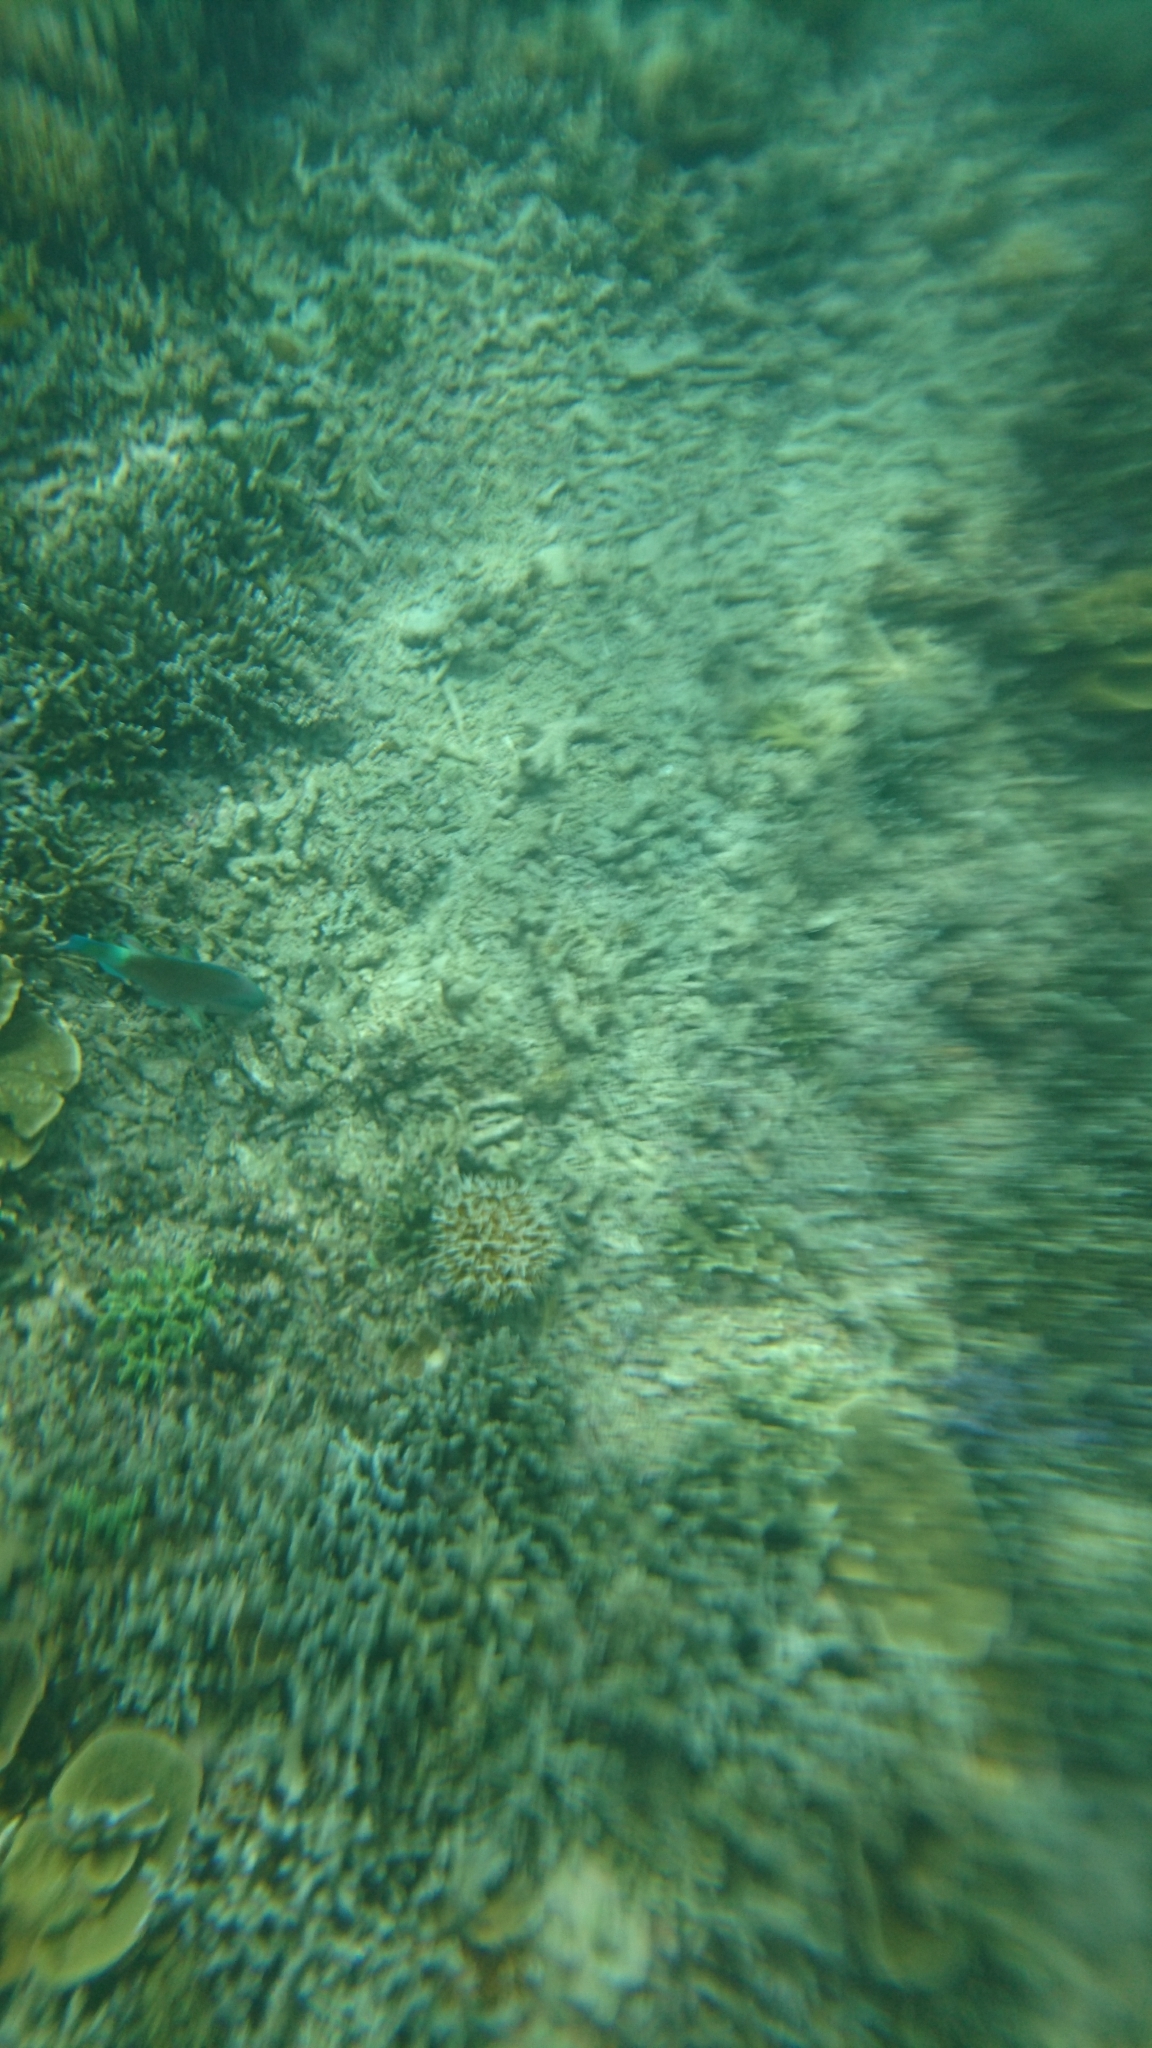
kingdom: Animalia
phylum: Chordata
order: Perciformes
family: Scaridae
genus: Chlorurus
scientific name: Chlorurus spilurus
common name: Bullethead parrotfish
